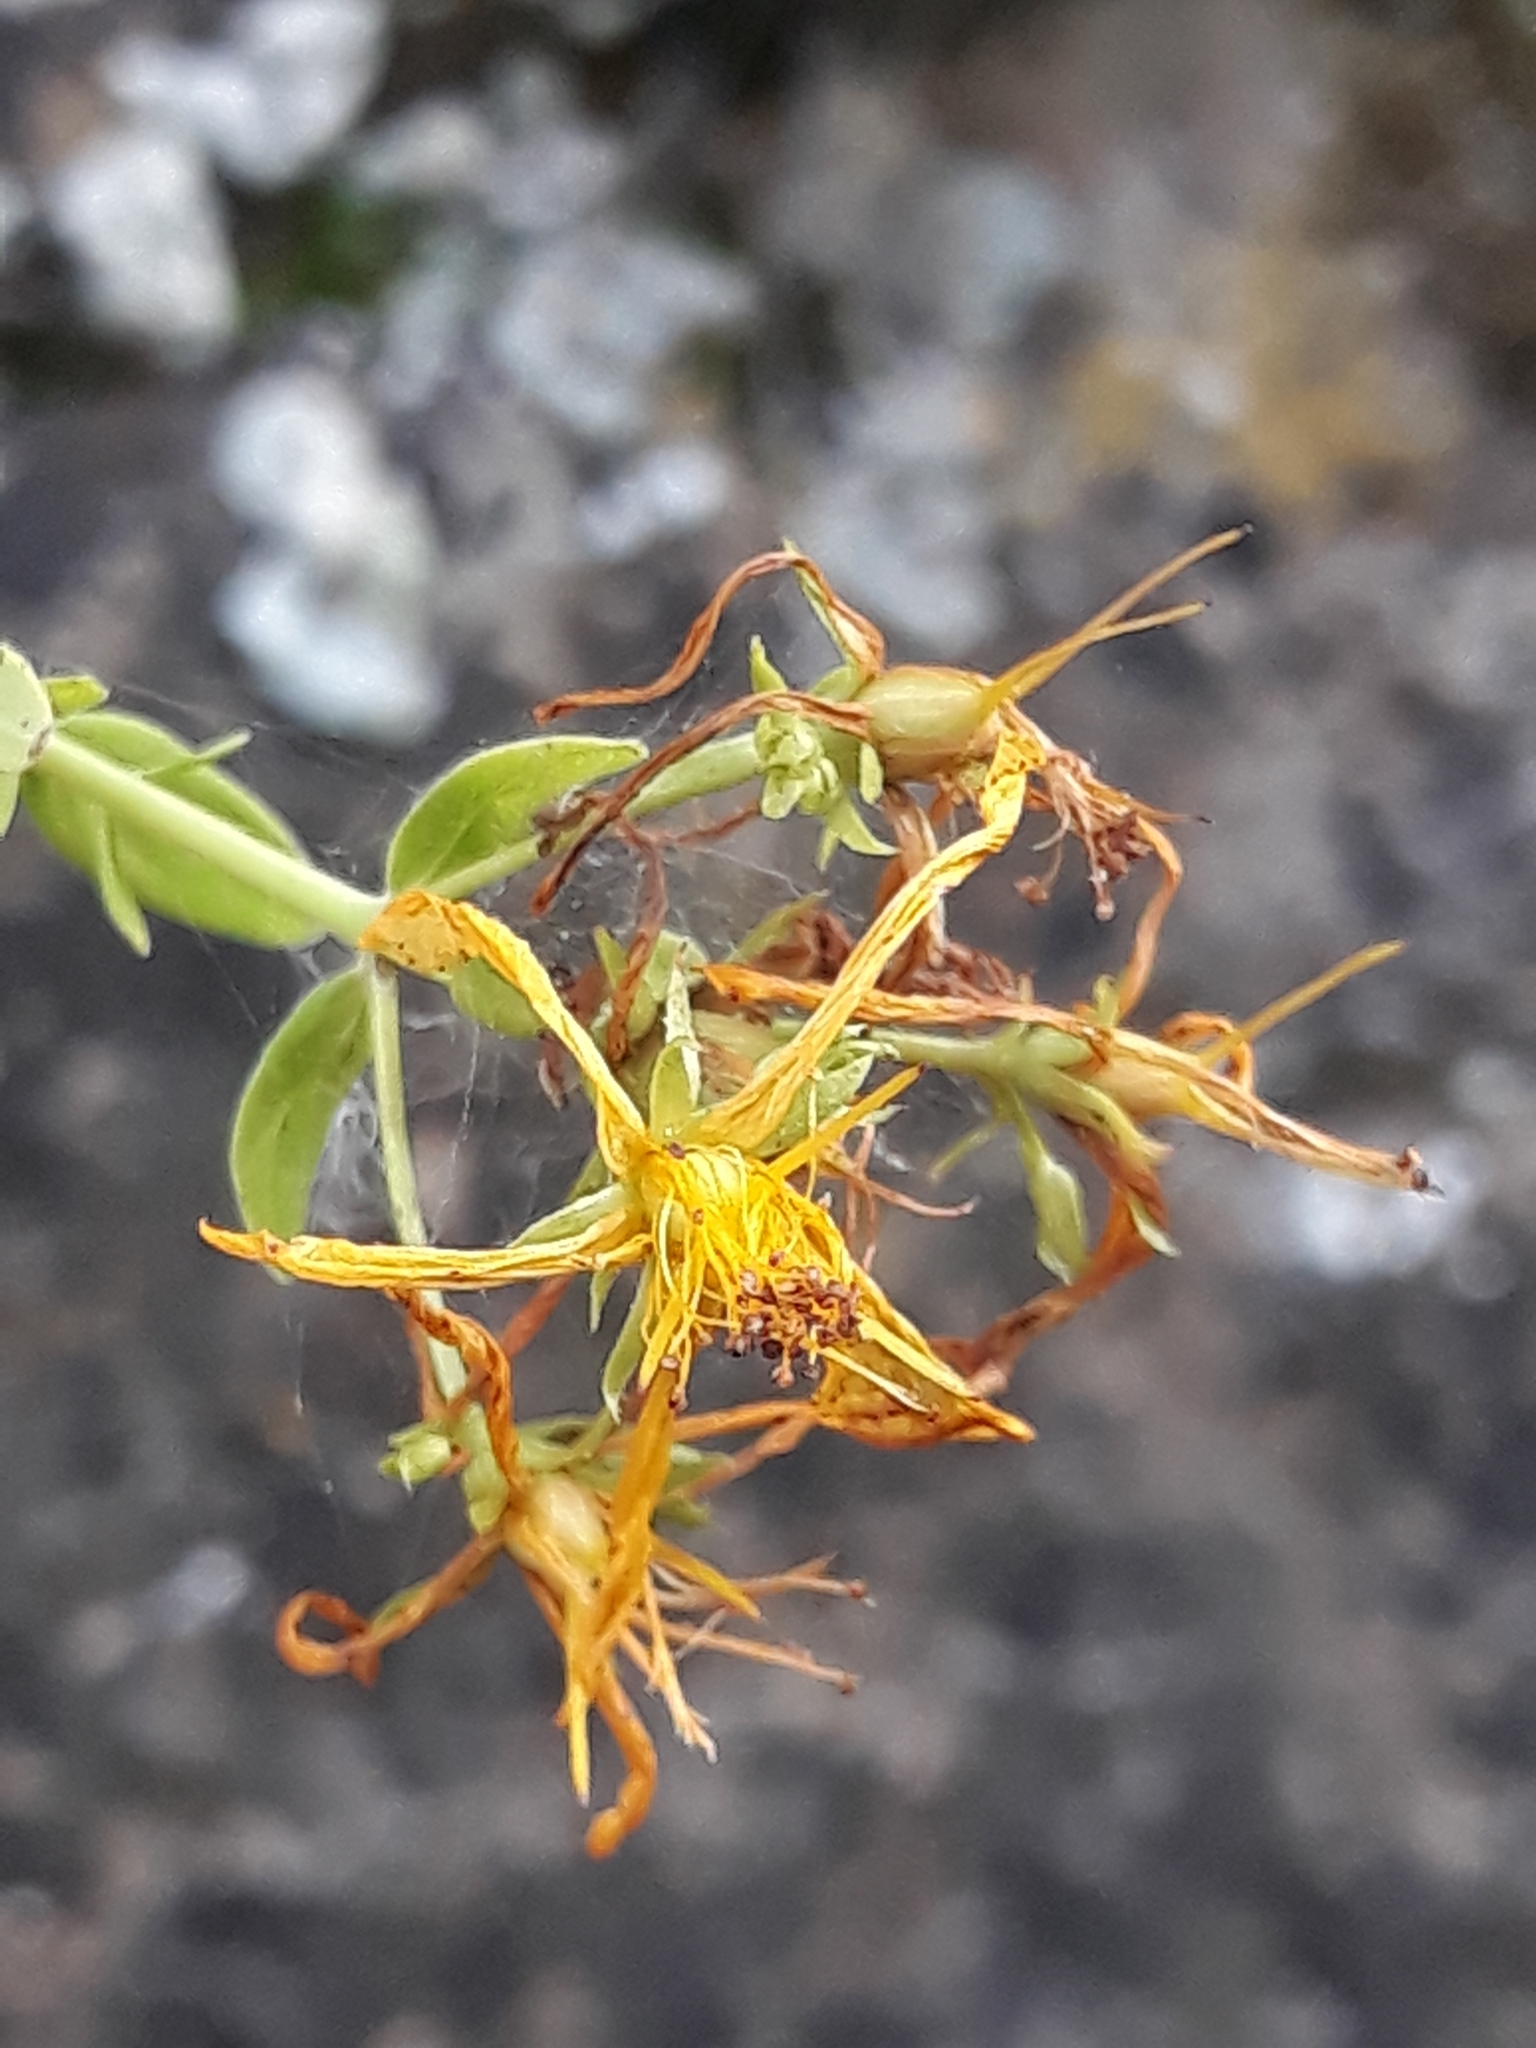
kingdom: Plantae
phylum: Tracheophyta
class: Magnoliopsida
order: Malpighiales
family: Hypericaceae
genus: Hypericum
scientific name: Hypericum perforatum
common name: Common st. johnswort
